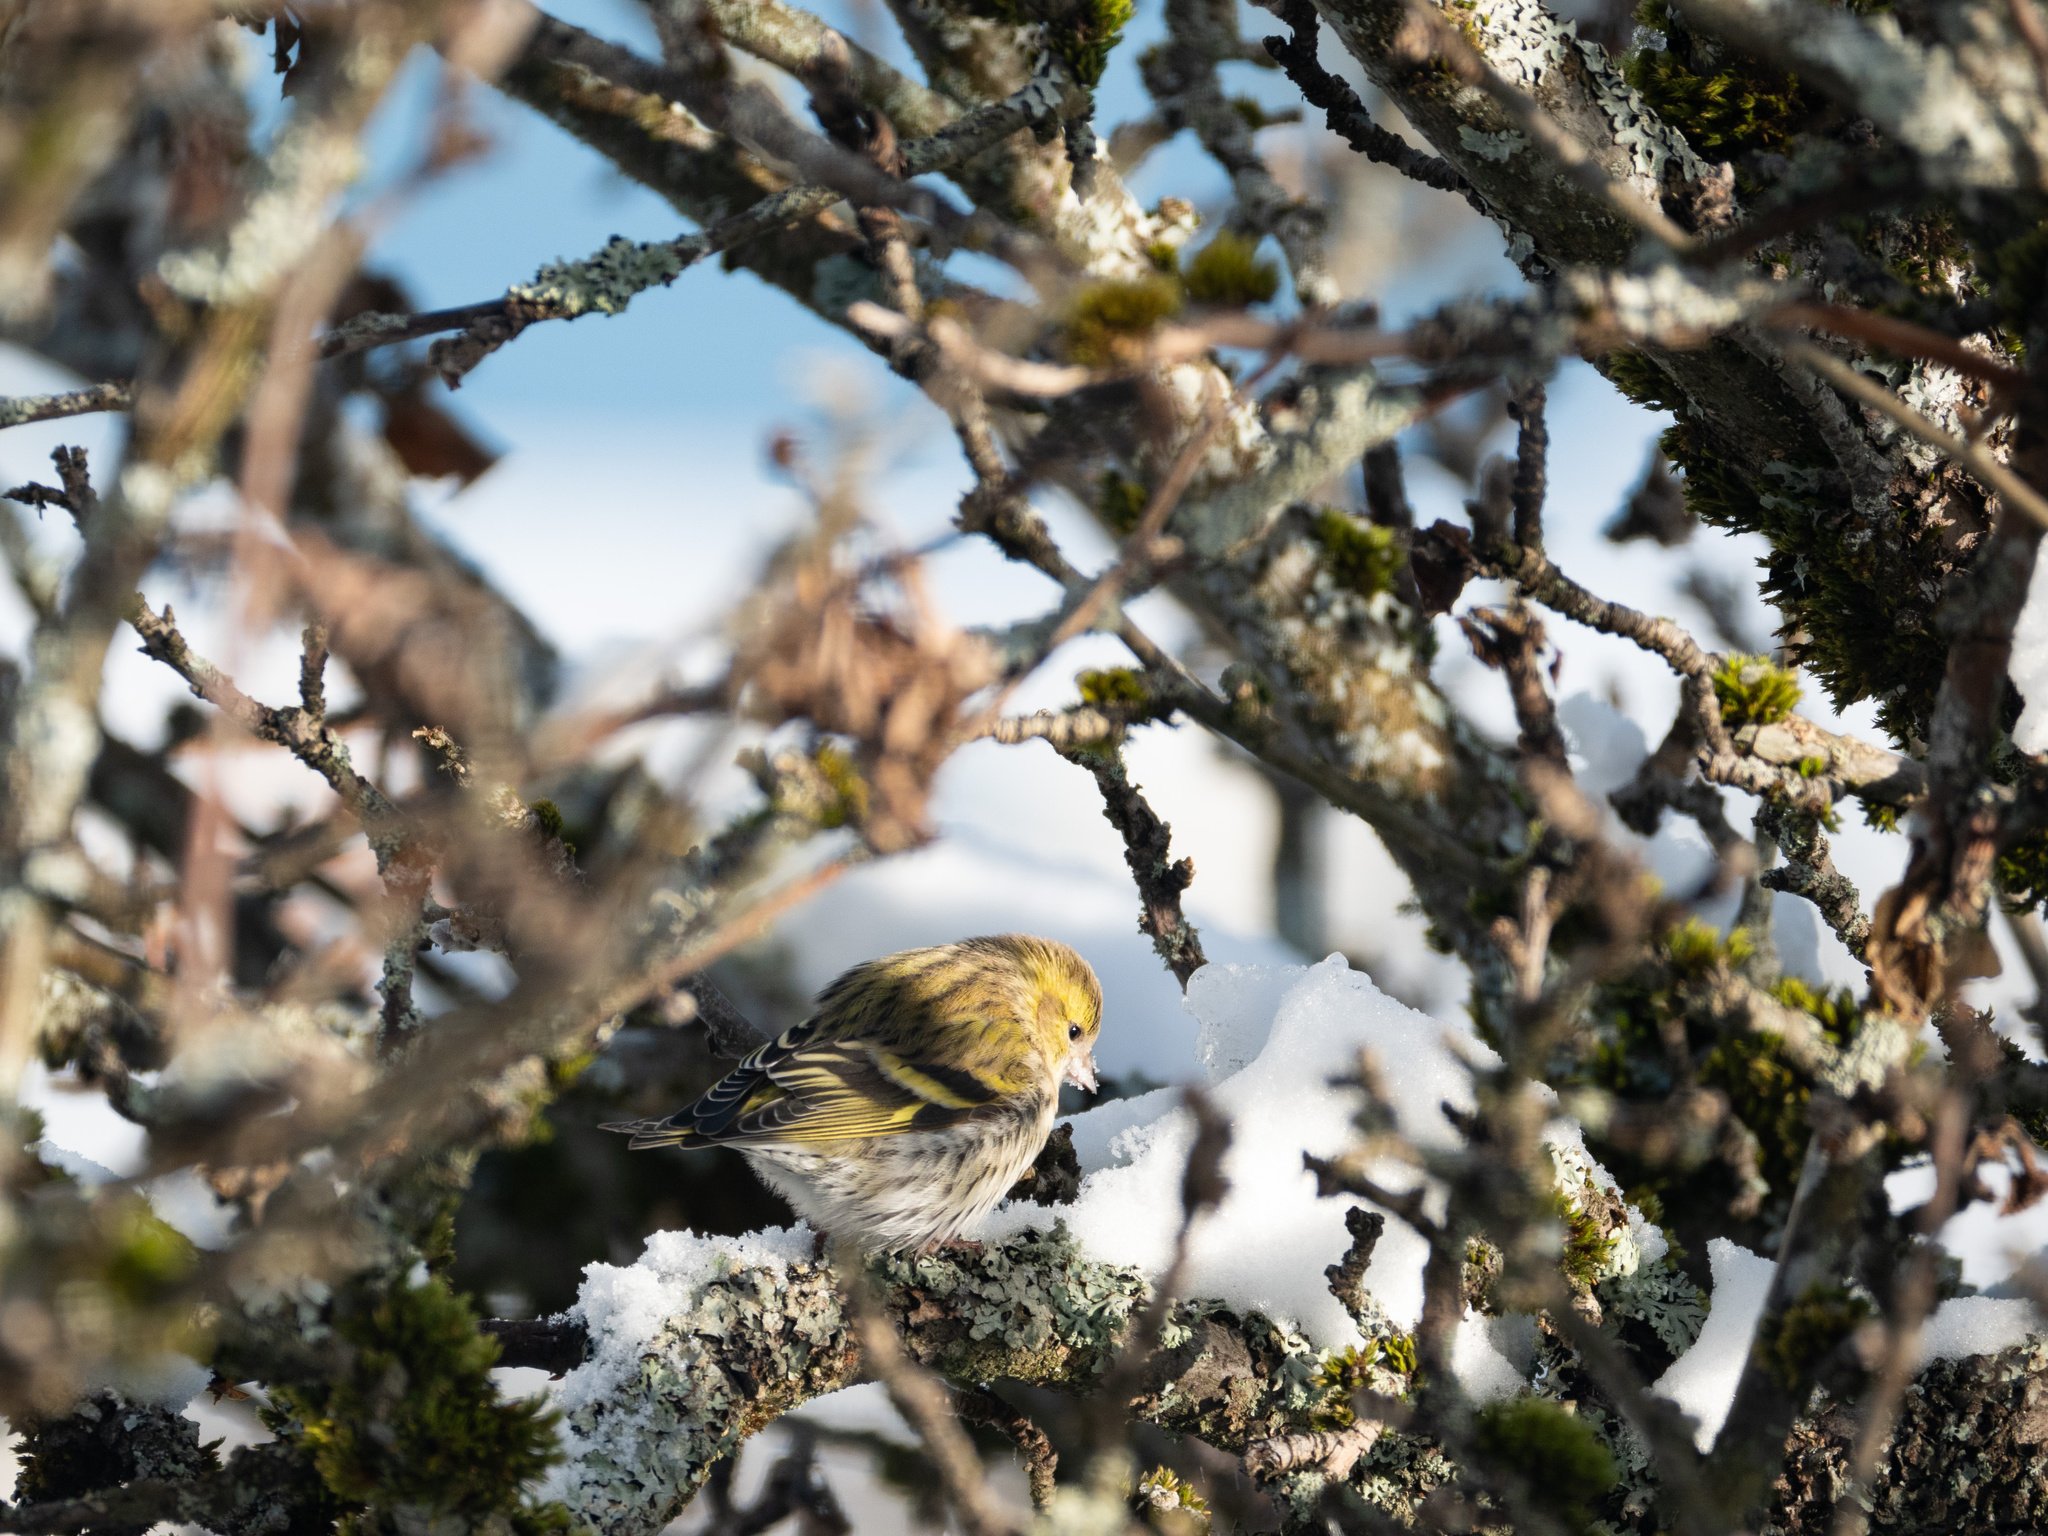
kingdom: Animalia
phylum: Chordata
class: Aves
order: Passeriformes
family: Fringillidae
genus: Spinus
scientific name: Spinus spinus
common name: Eurasian siskin
